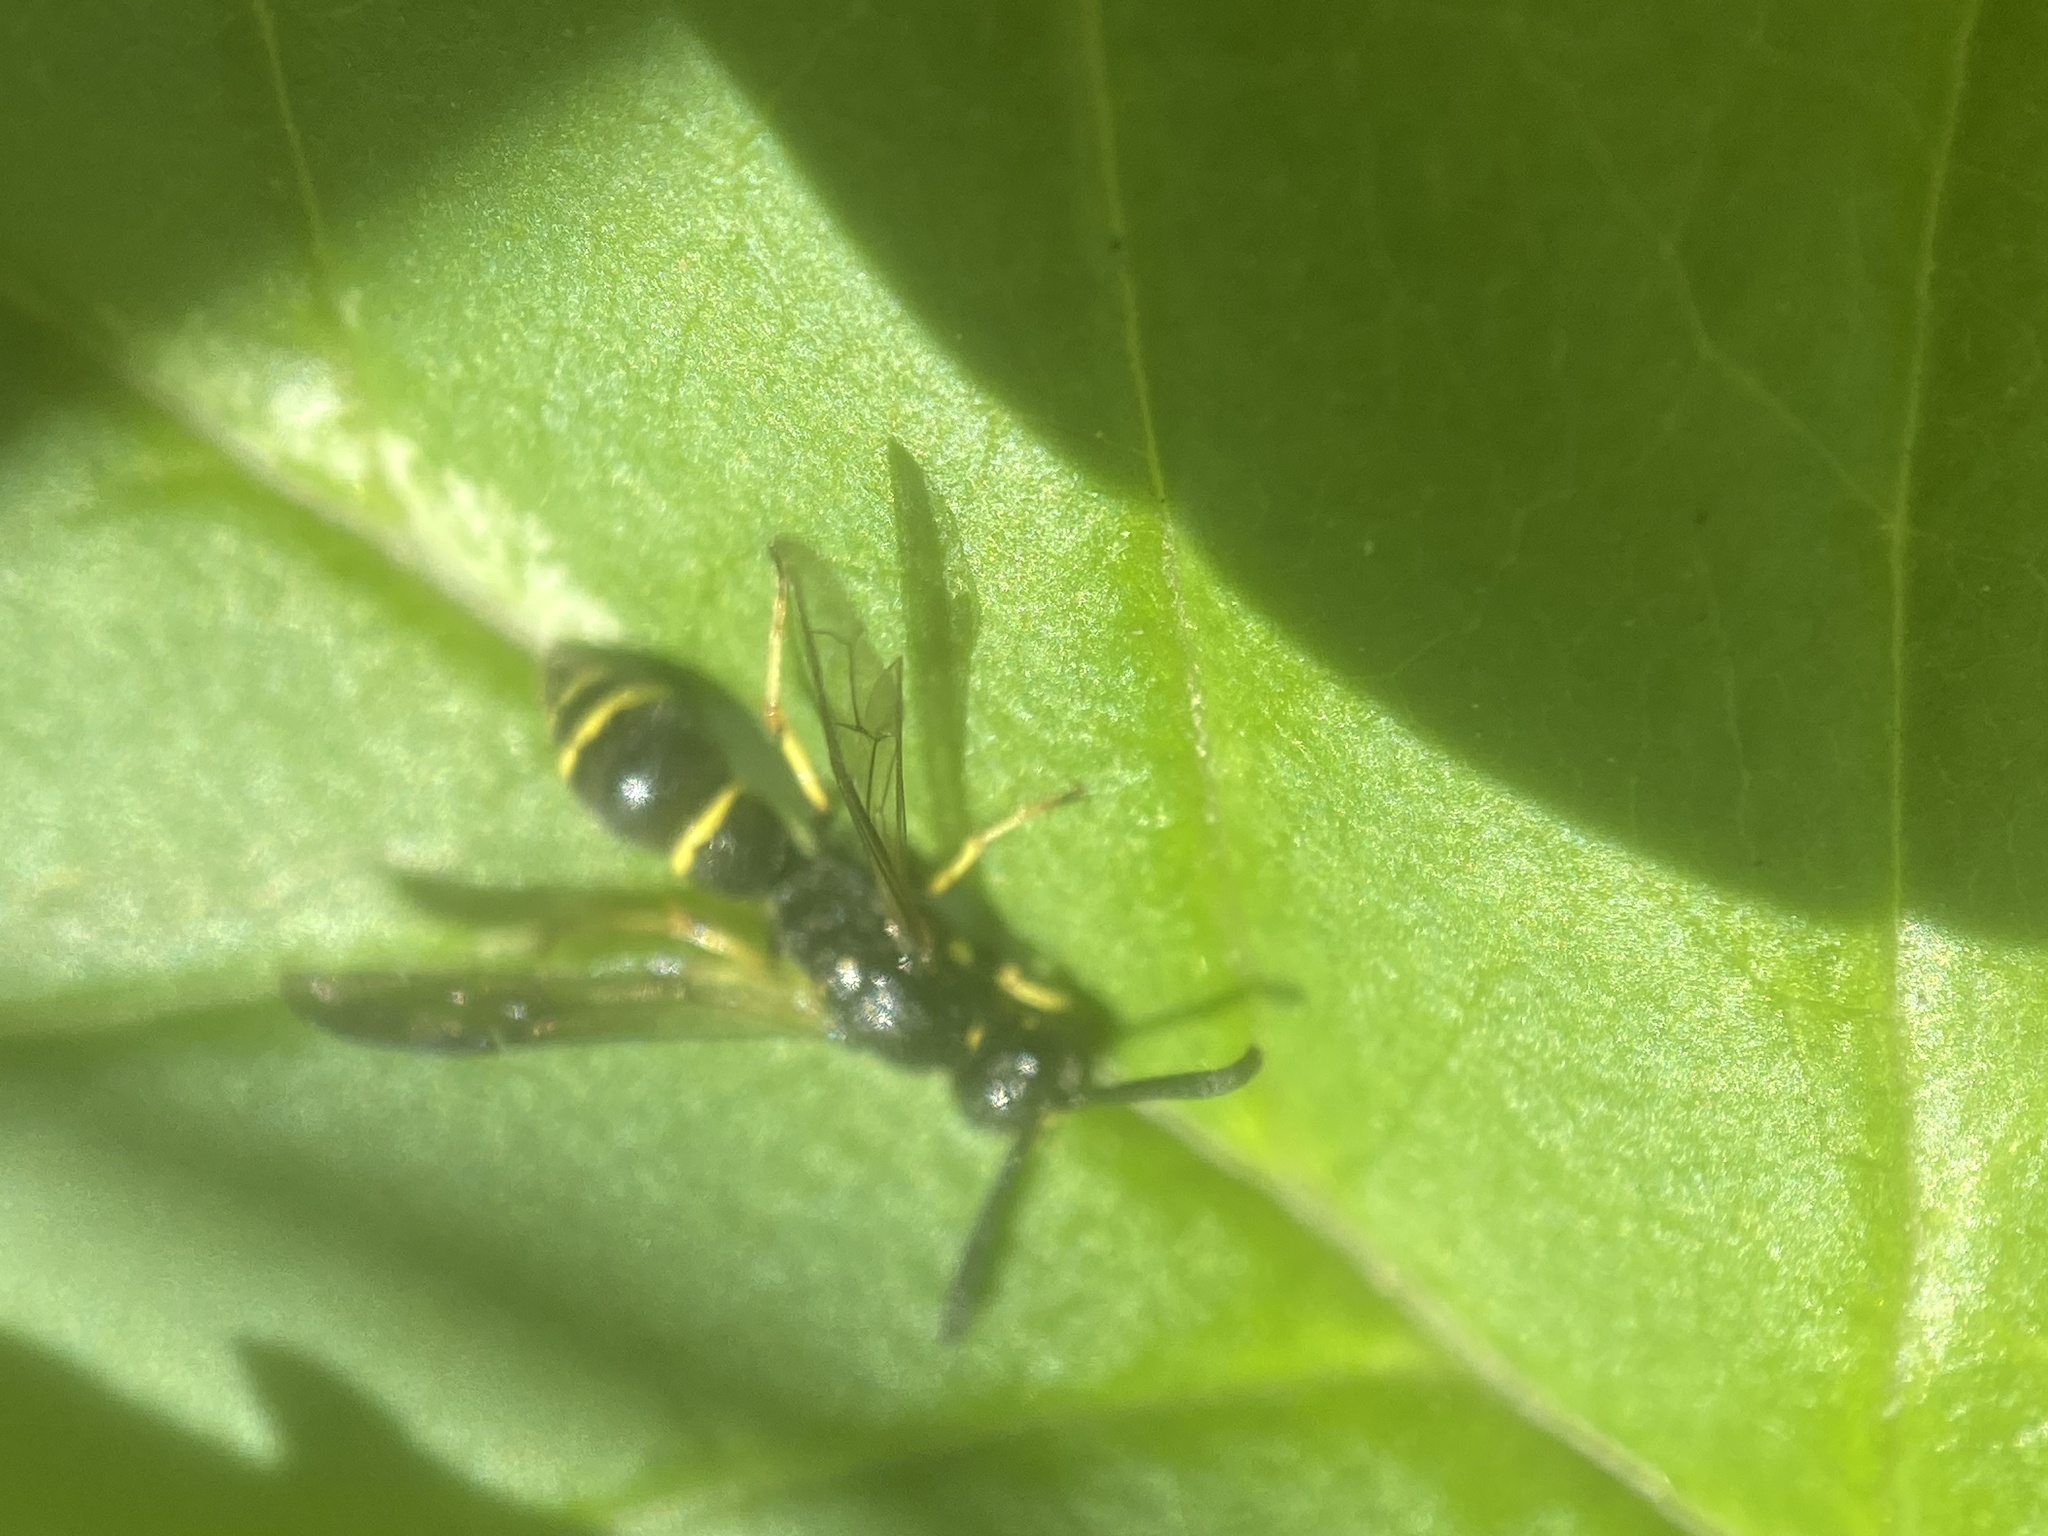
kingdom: Animalia
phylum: Arthropoda
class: Insecta
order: Hymenoptera
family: Eumenidae
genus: Symmorphus
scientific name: Symmorphus
